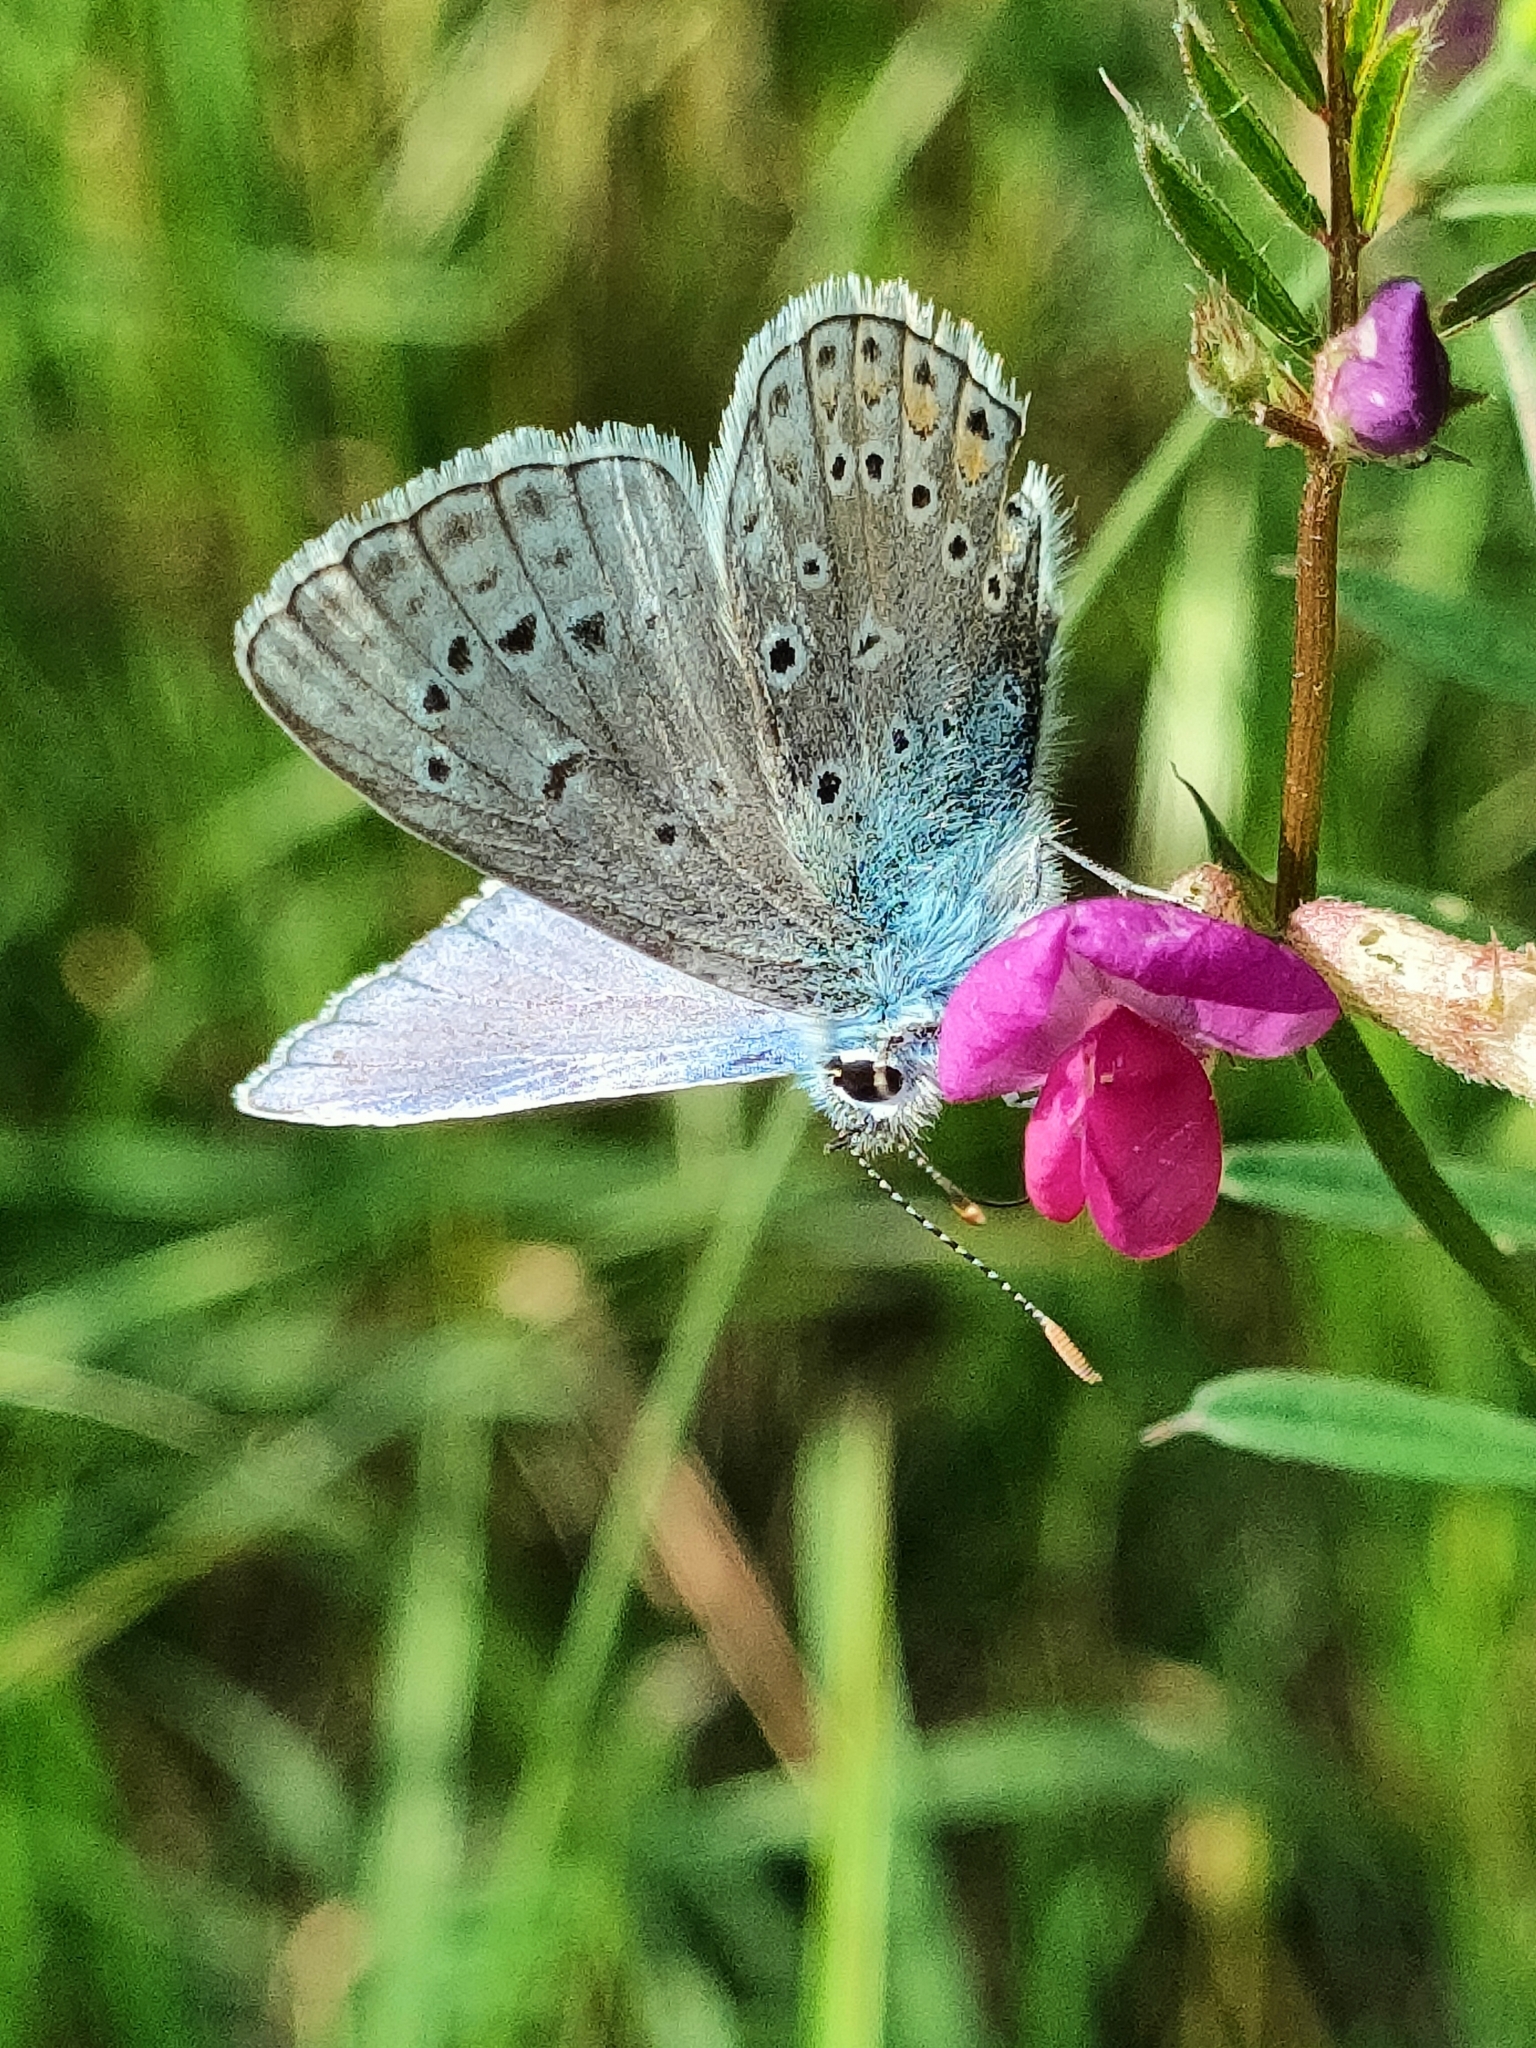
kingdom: Animalia
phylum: Arthropoda
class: Insecta
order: Lepidoptera
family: Lycaenidae
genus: Polyommatus
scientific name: Polyommatus icarus
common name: Common blue
